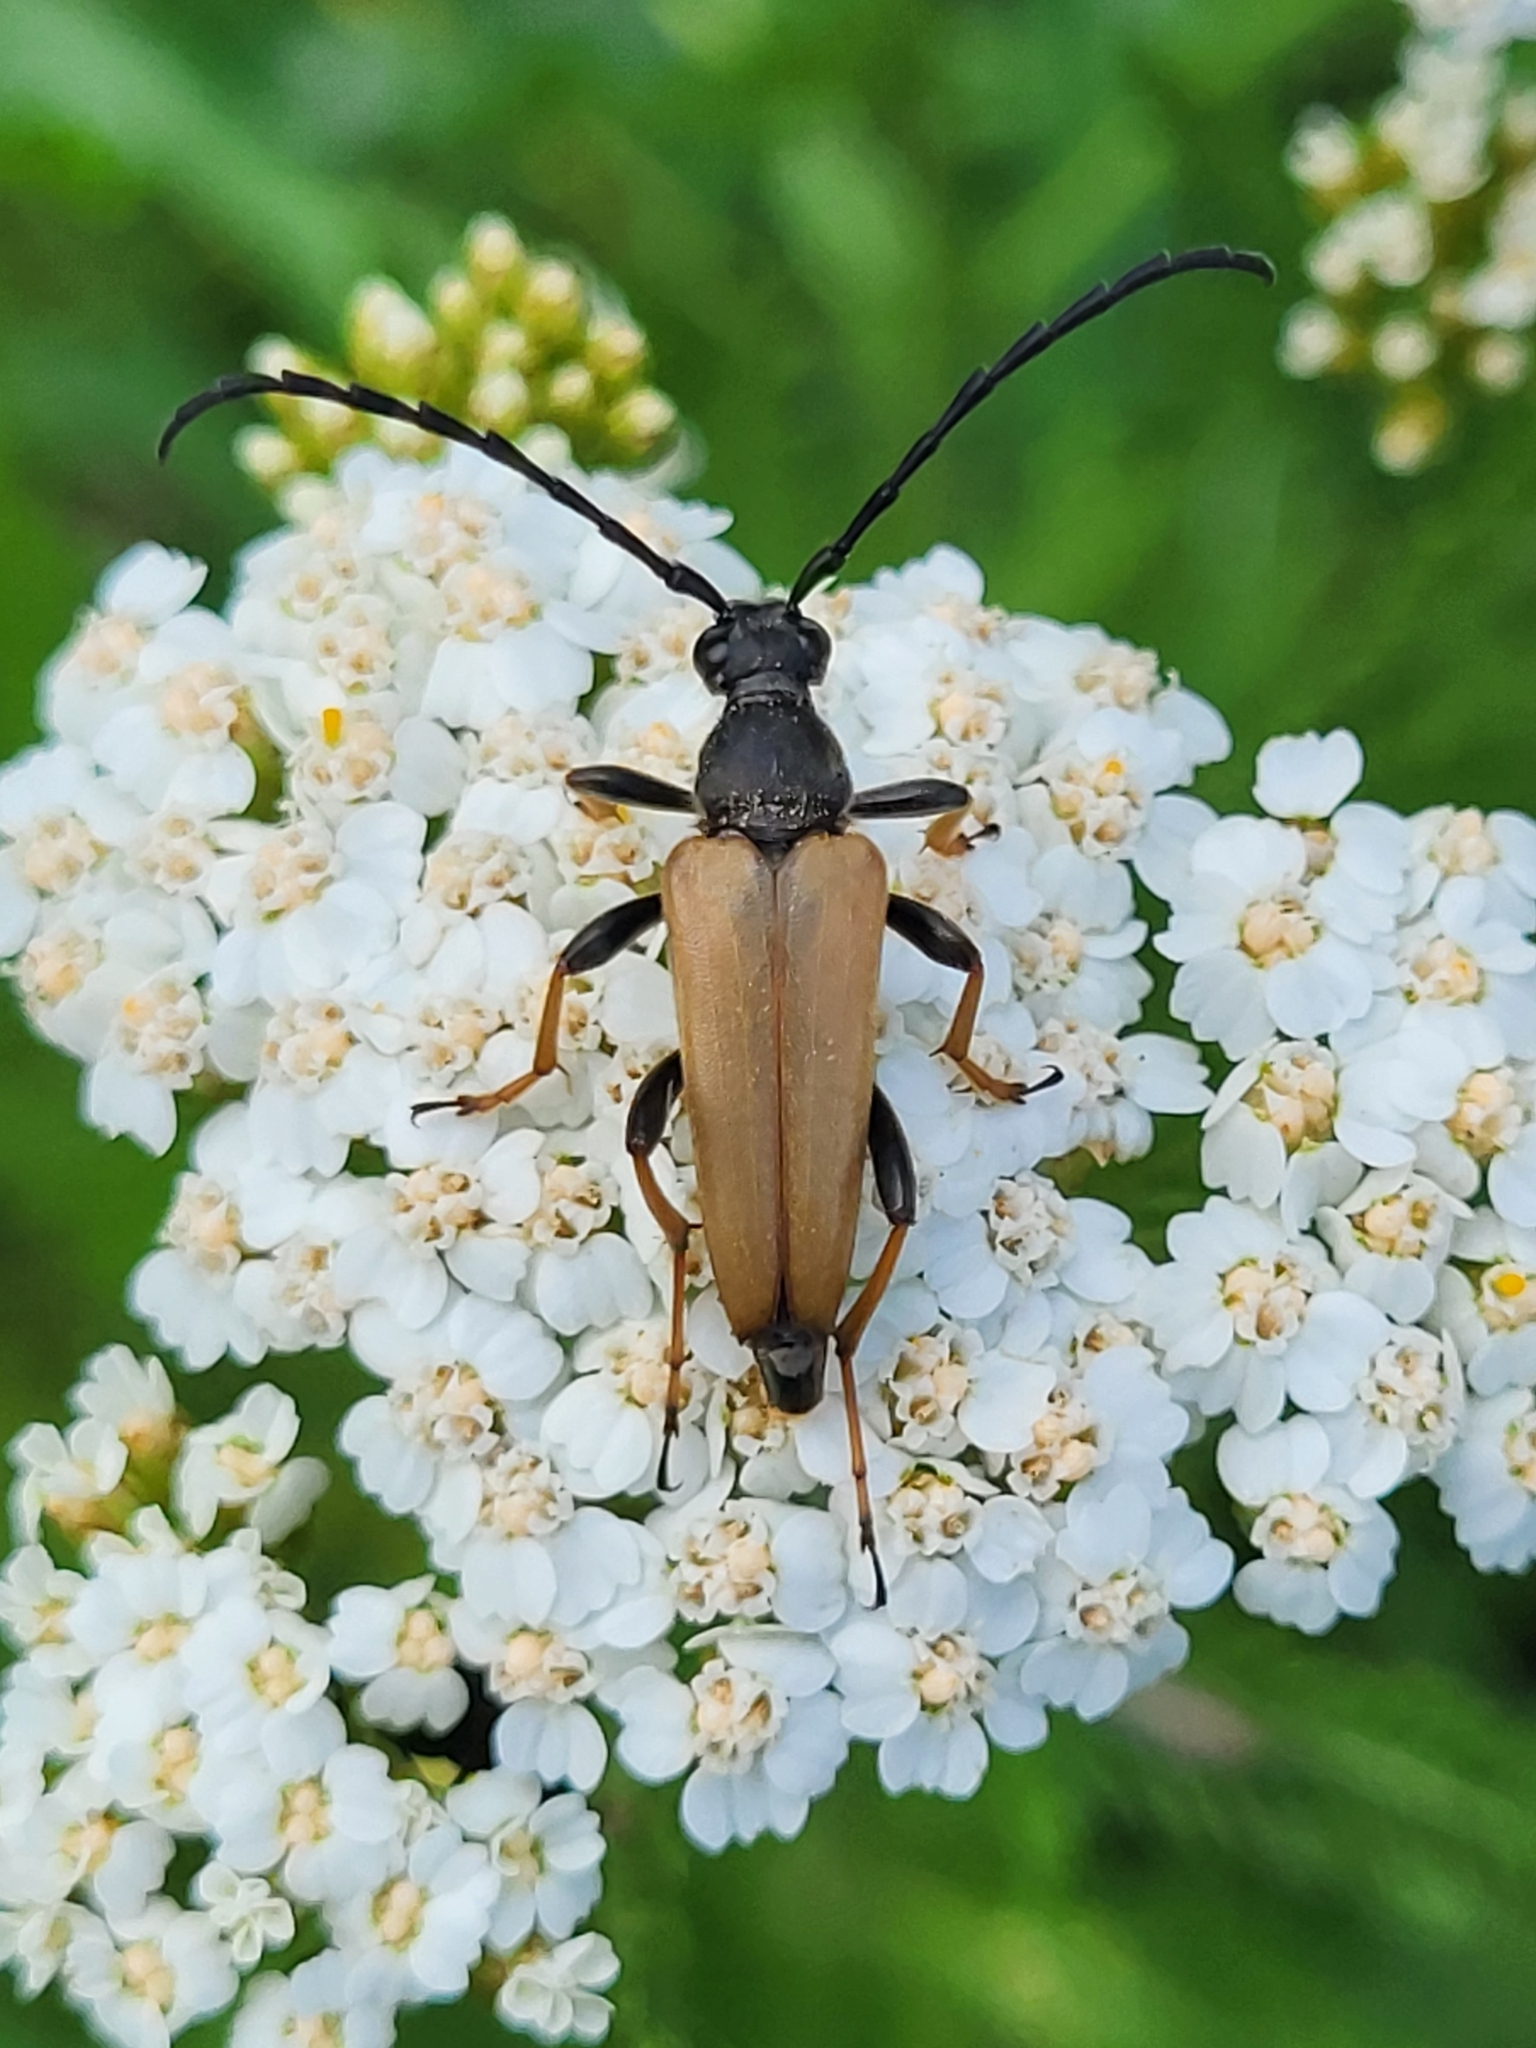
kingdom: Animalia
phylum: Arthropoda
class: Insecta
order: Coleoptera
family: Cerambycidae
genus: Stictoleptura
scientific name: Stictoleptura rubra
